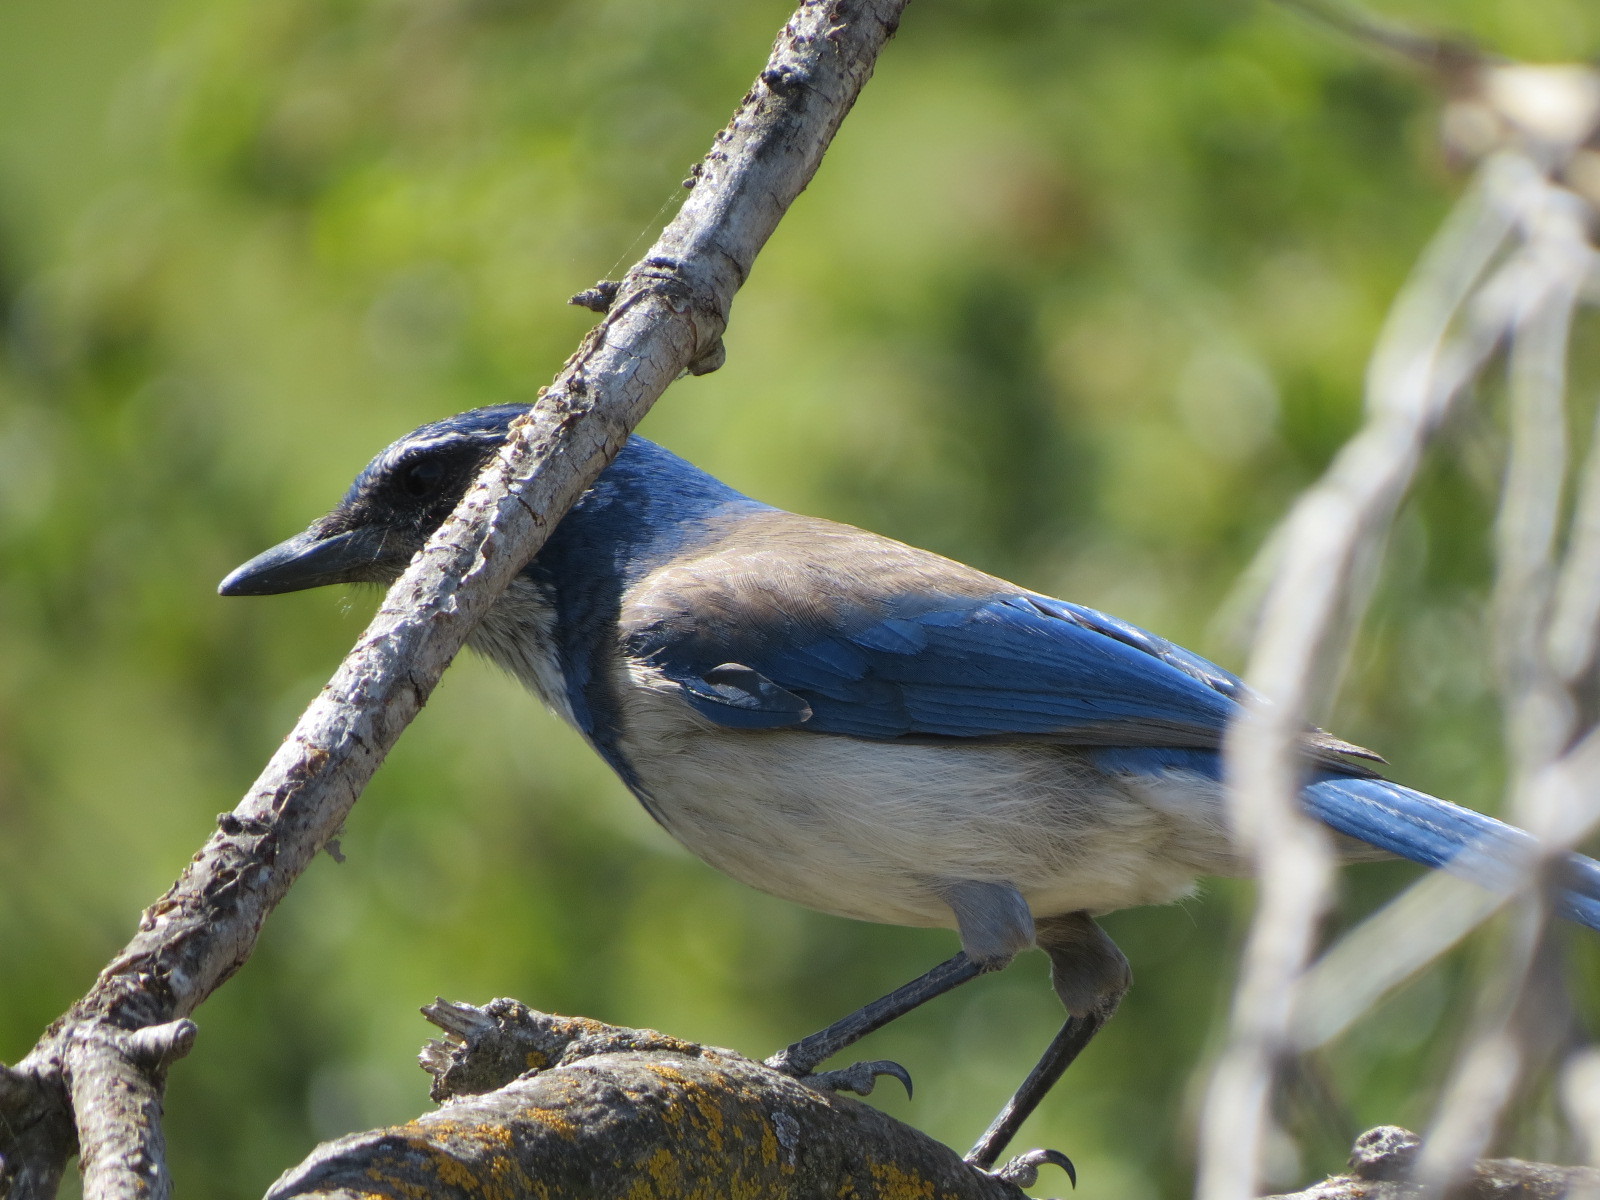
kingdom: Animalia
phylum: Chordata
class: Aves
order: Passeriformes
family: Corvidae
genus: Aphelocoma
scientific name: Aphelocoma californica
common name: California scrub-jay
